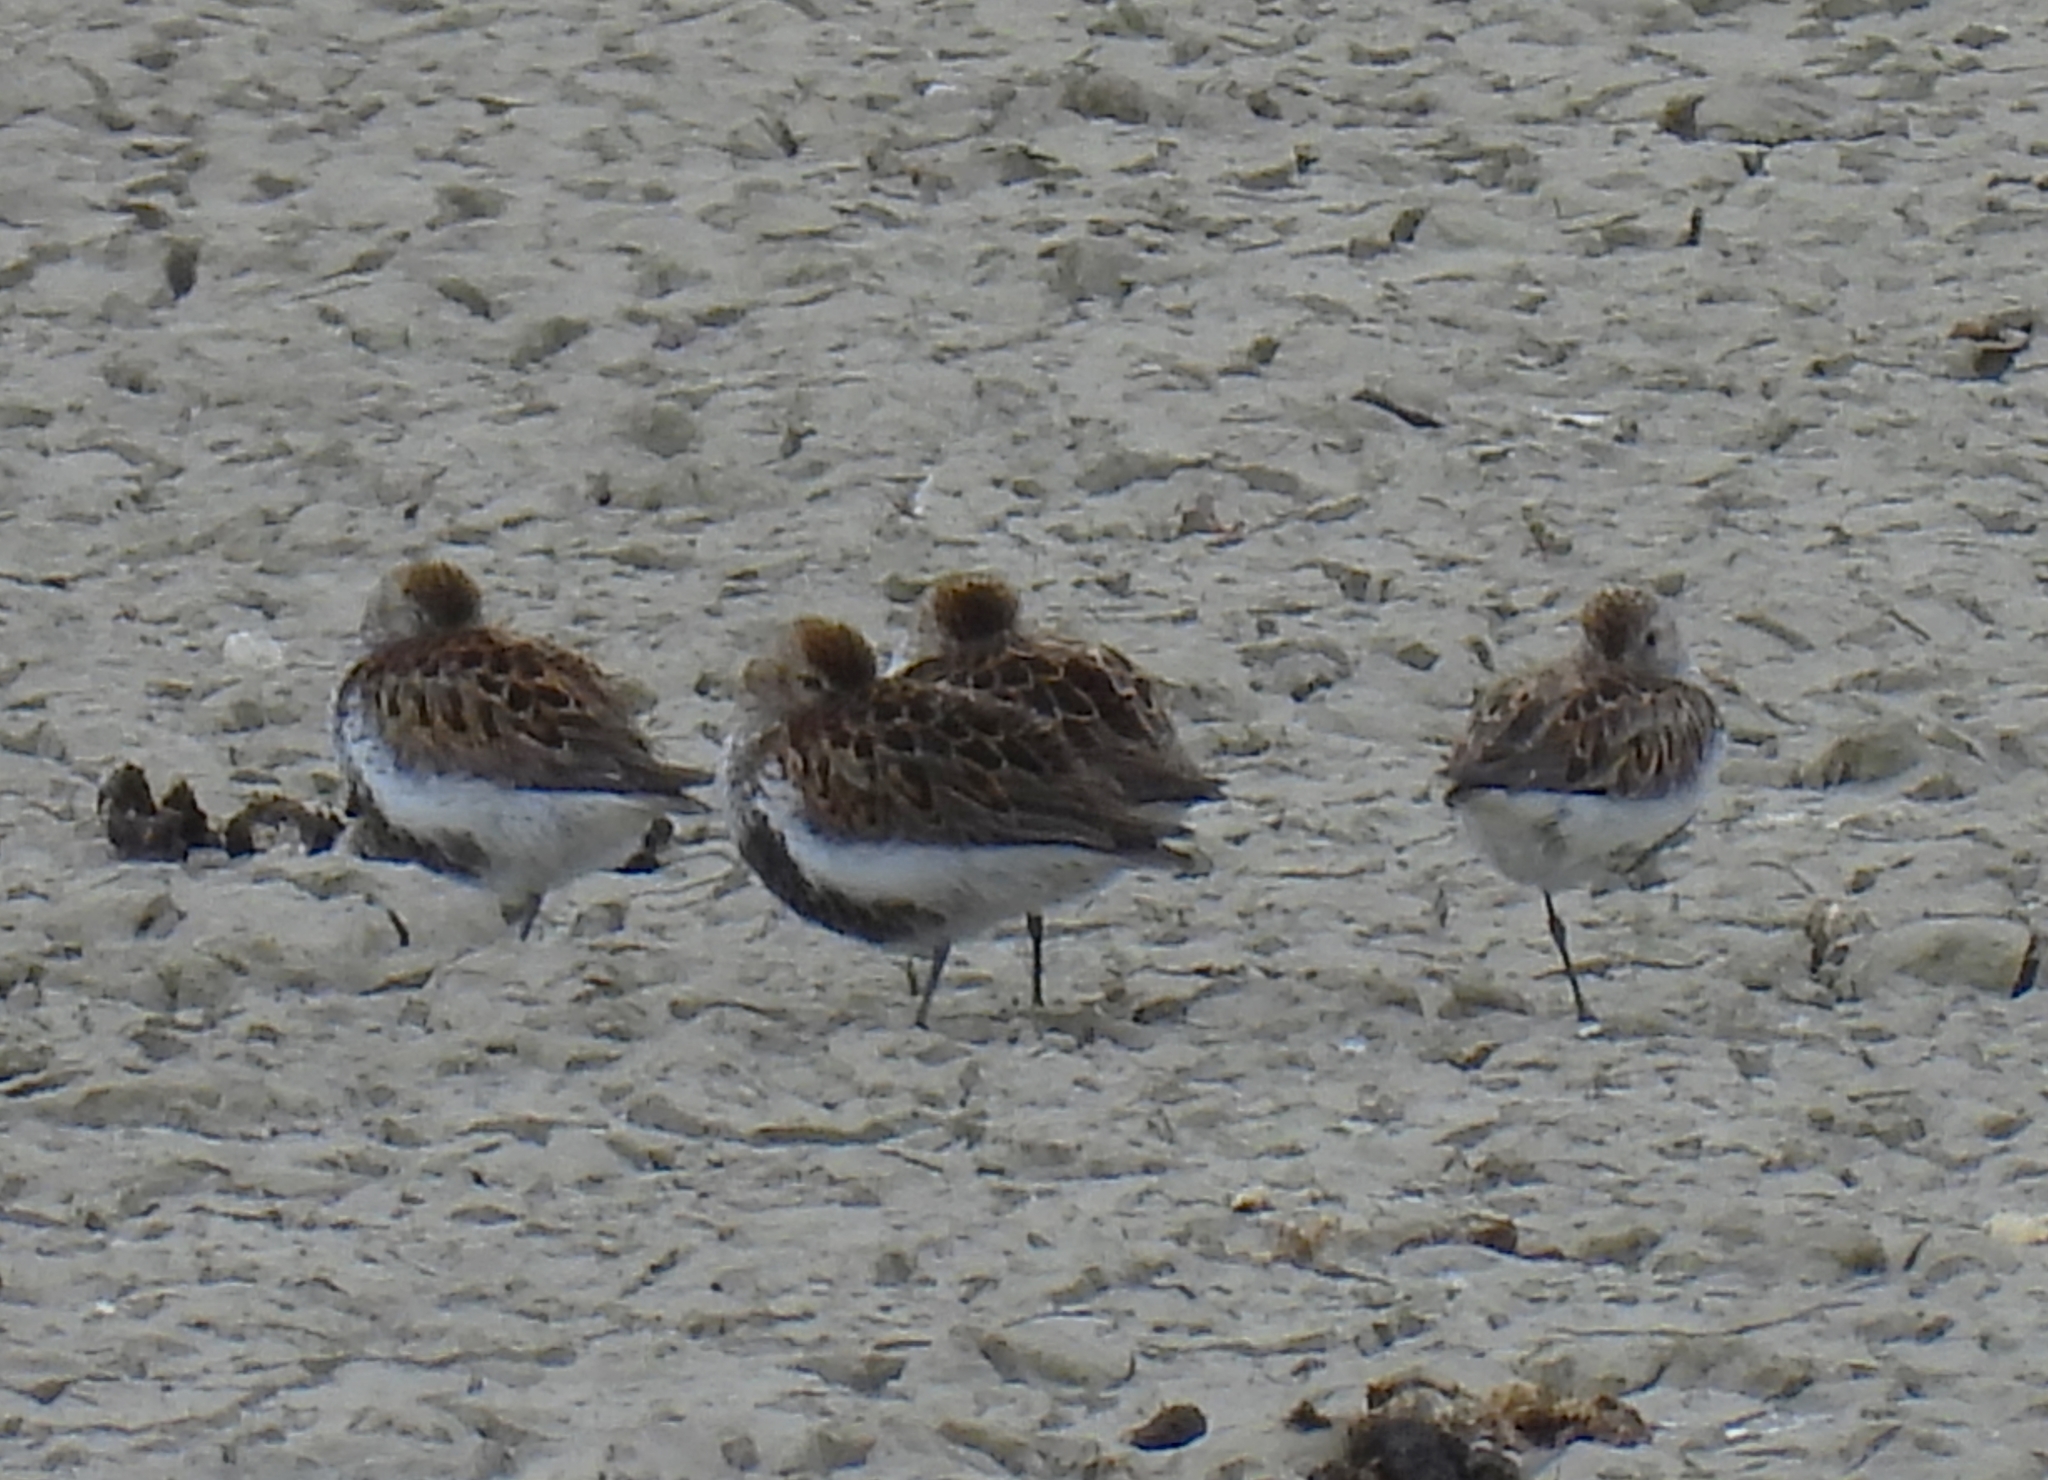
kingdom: Animalia
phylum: Chordata
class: Aves
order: Charadriiformes
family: Scolopacidae
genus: Calidris
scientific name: Calidris alpina
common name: Dunlin
